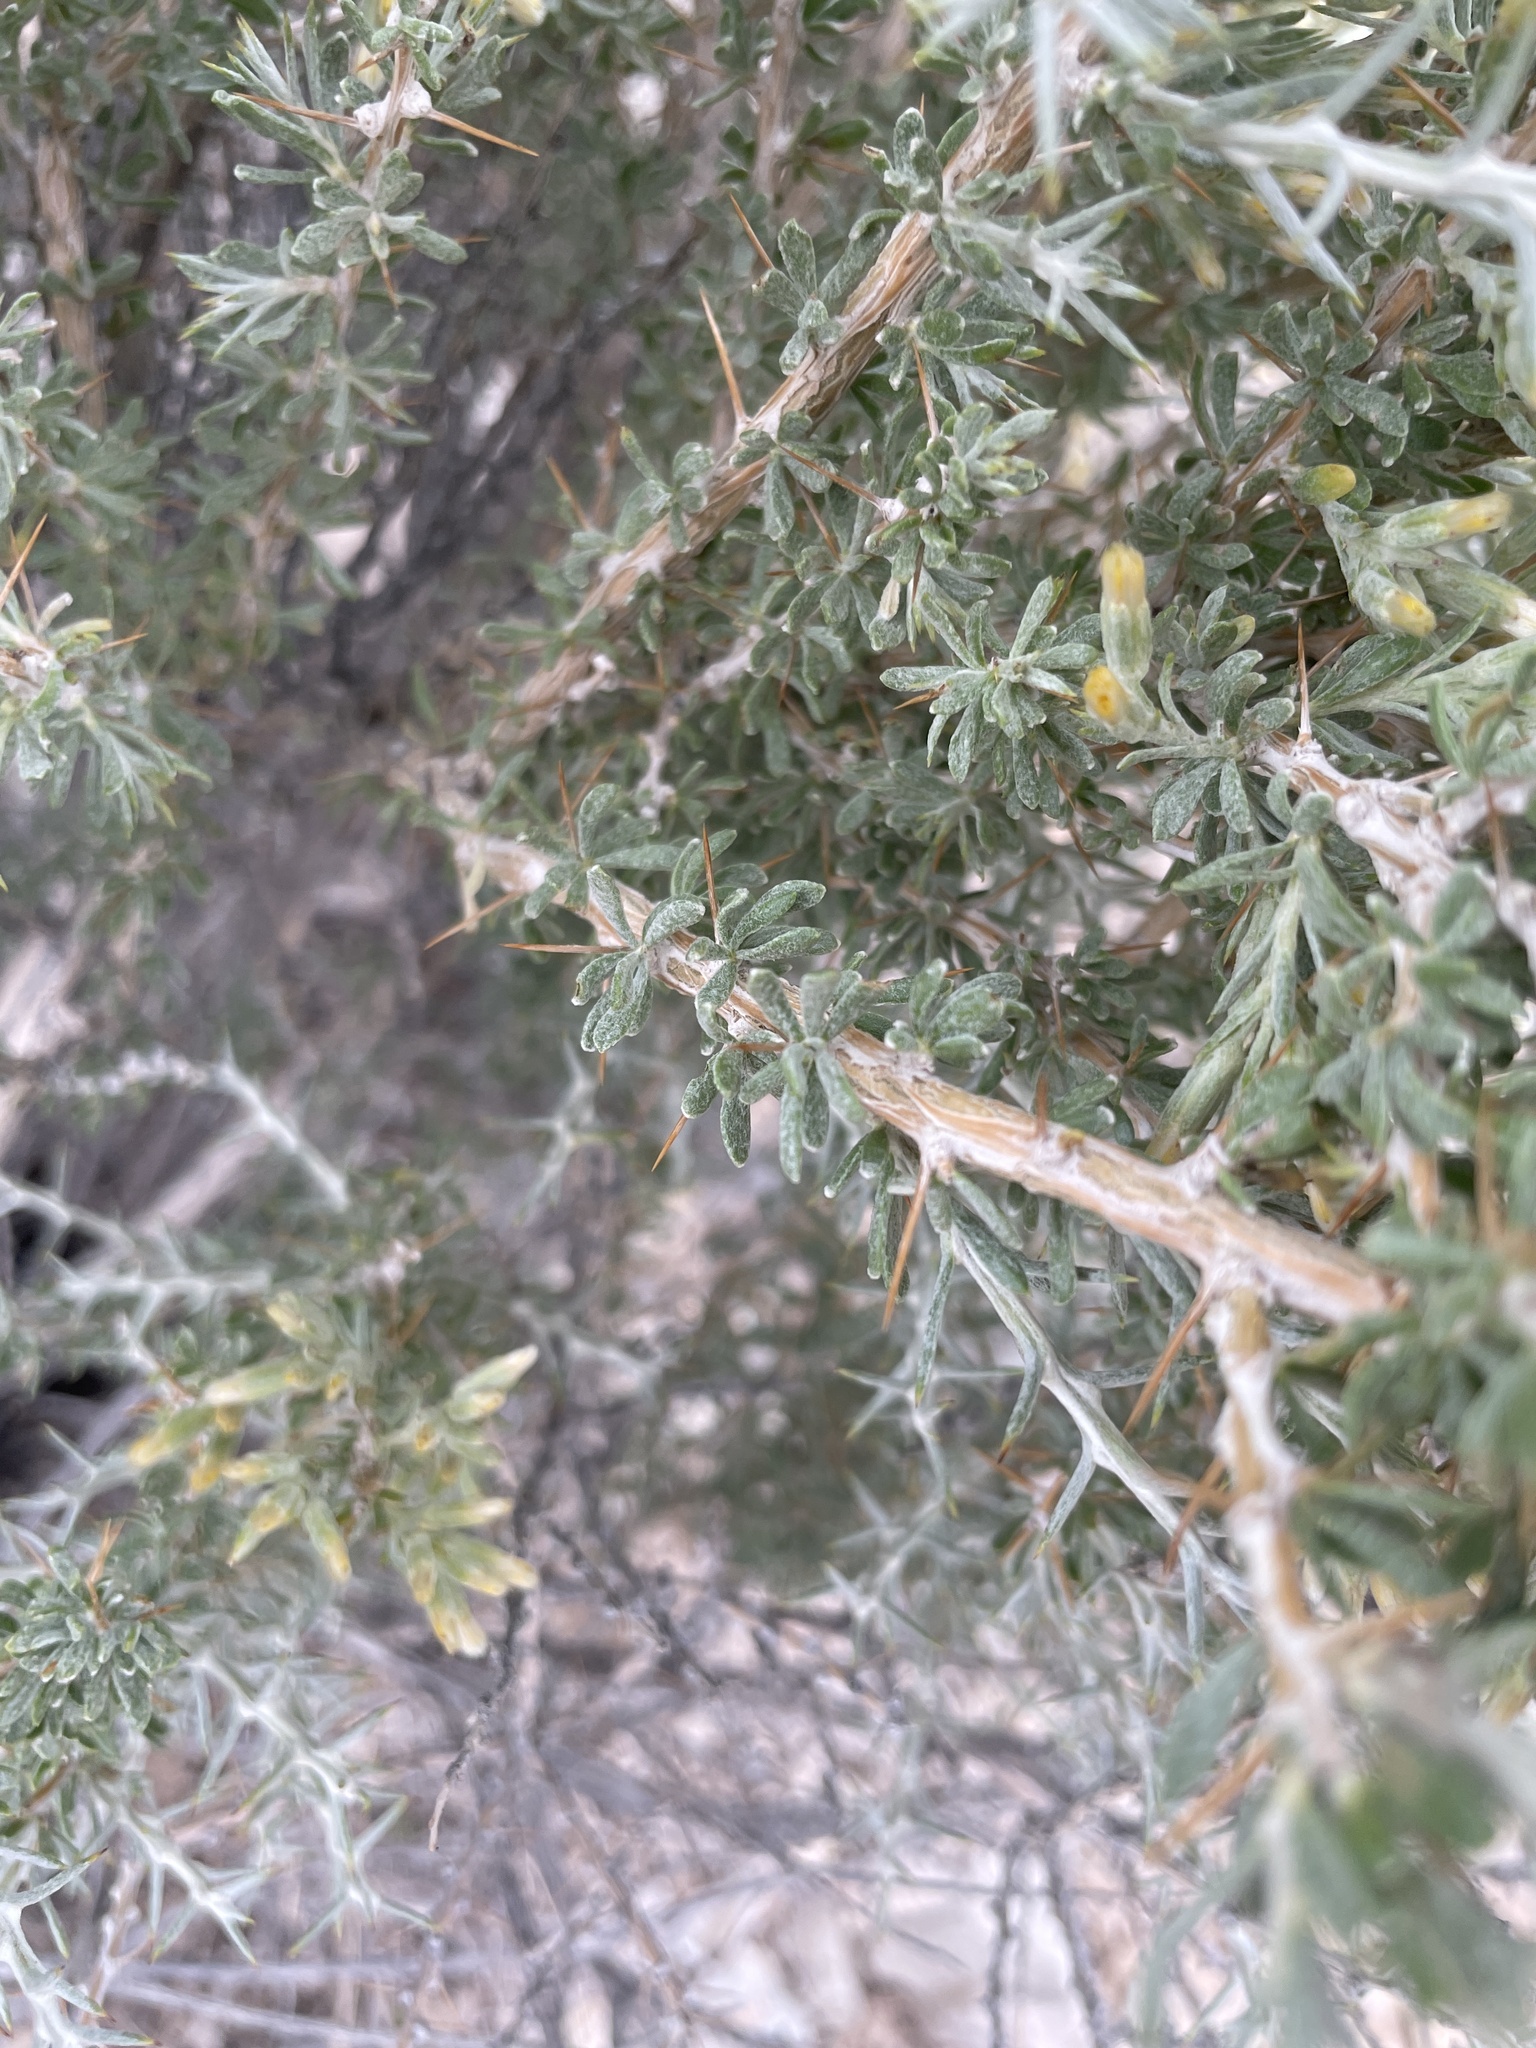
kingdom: Plantae
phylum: Tracheophyta
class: Magnoliopsida
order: Asterales
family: Asteraceae
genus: Tetradymia
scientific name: Tetradymia nuttallii
